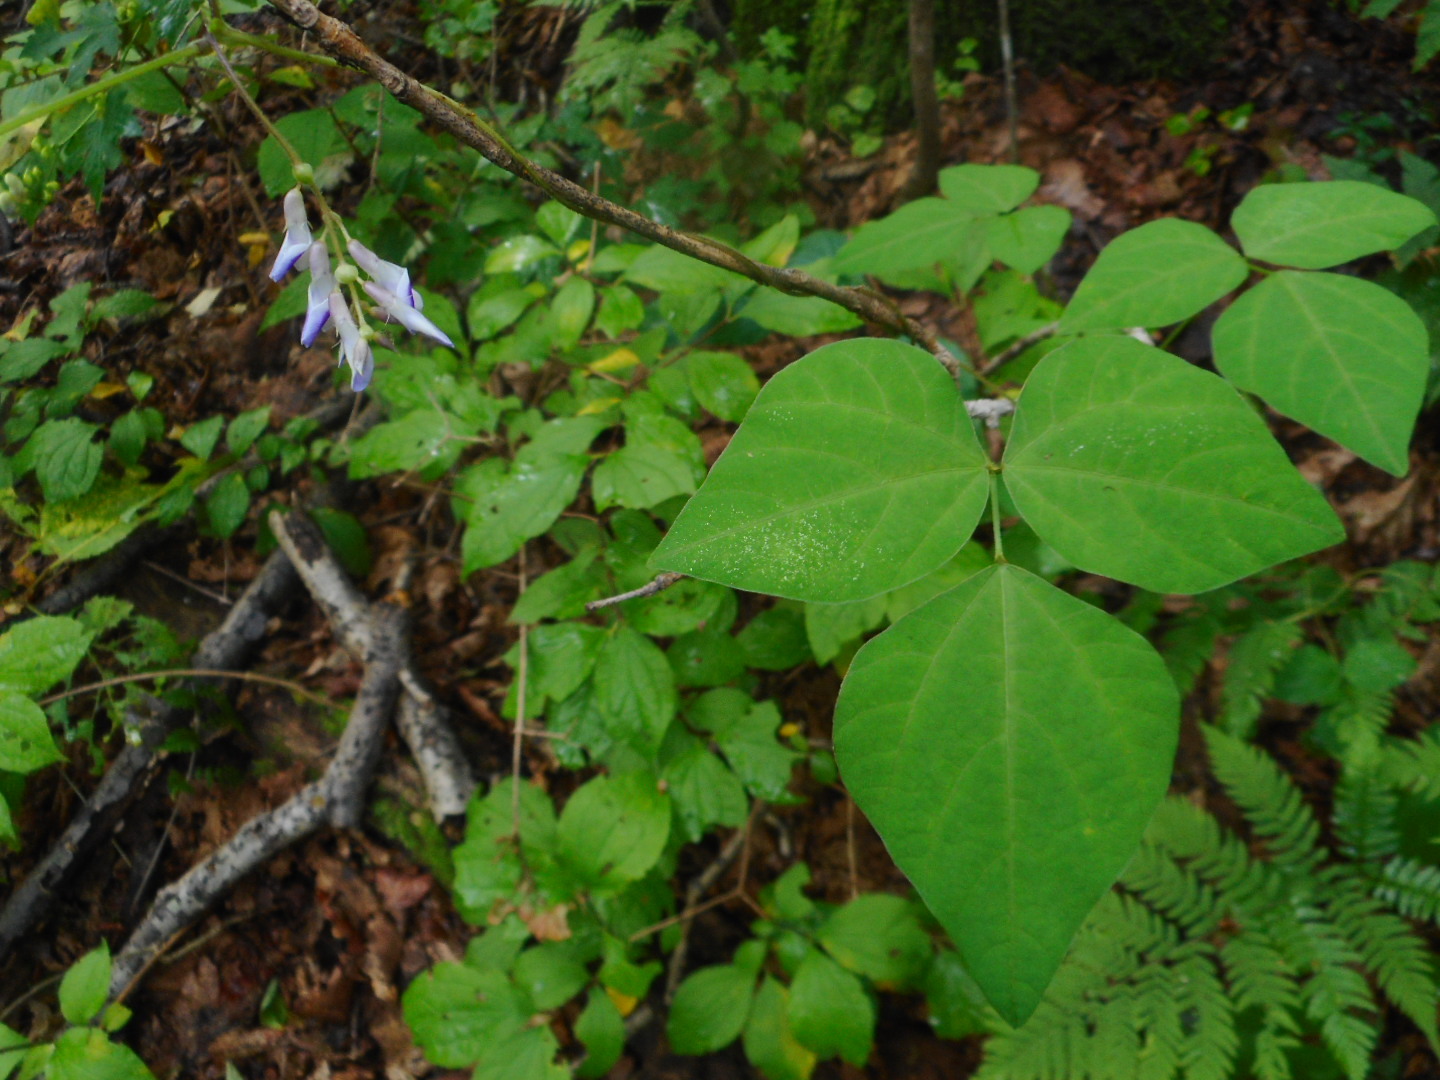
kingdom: Plantae
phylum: Tracheophyta
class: Magnoliopsida
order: Fabales
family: Fabaceae
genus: Amphicarpaea
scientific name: Amphicarpaea edgeworthii
